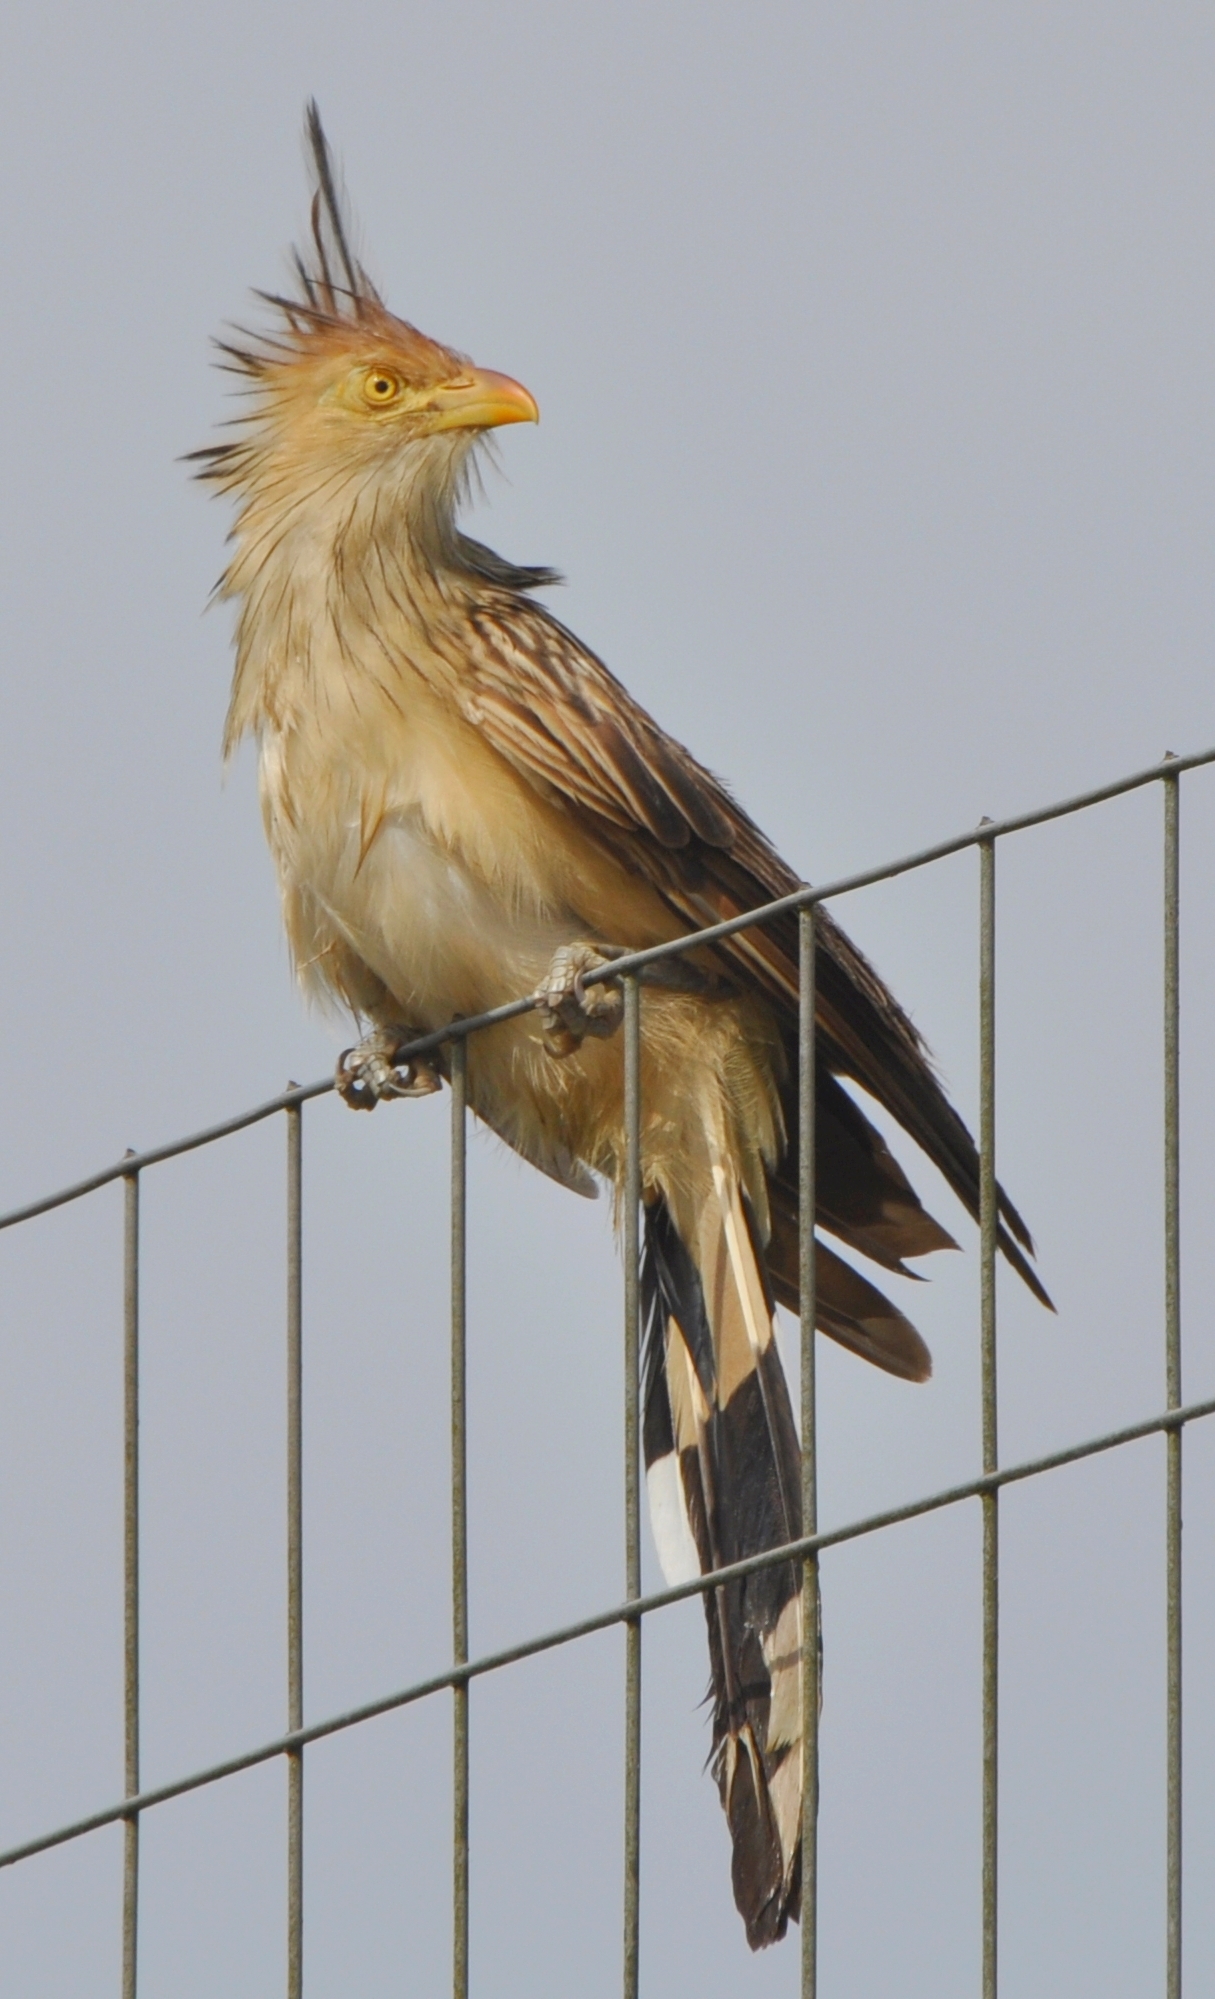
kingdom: Animalia
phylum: Chordata
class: Aves
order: Cuculiformes
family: Cuculidae
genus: Guira
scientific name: Guira guira
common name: Guira cuckoo
